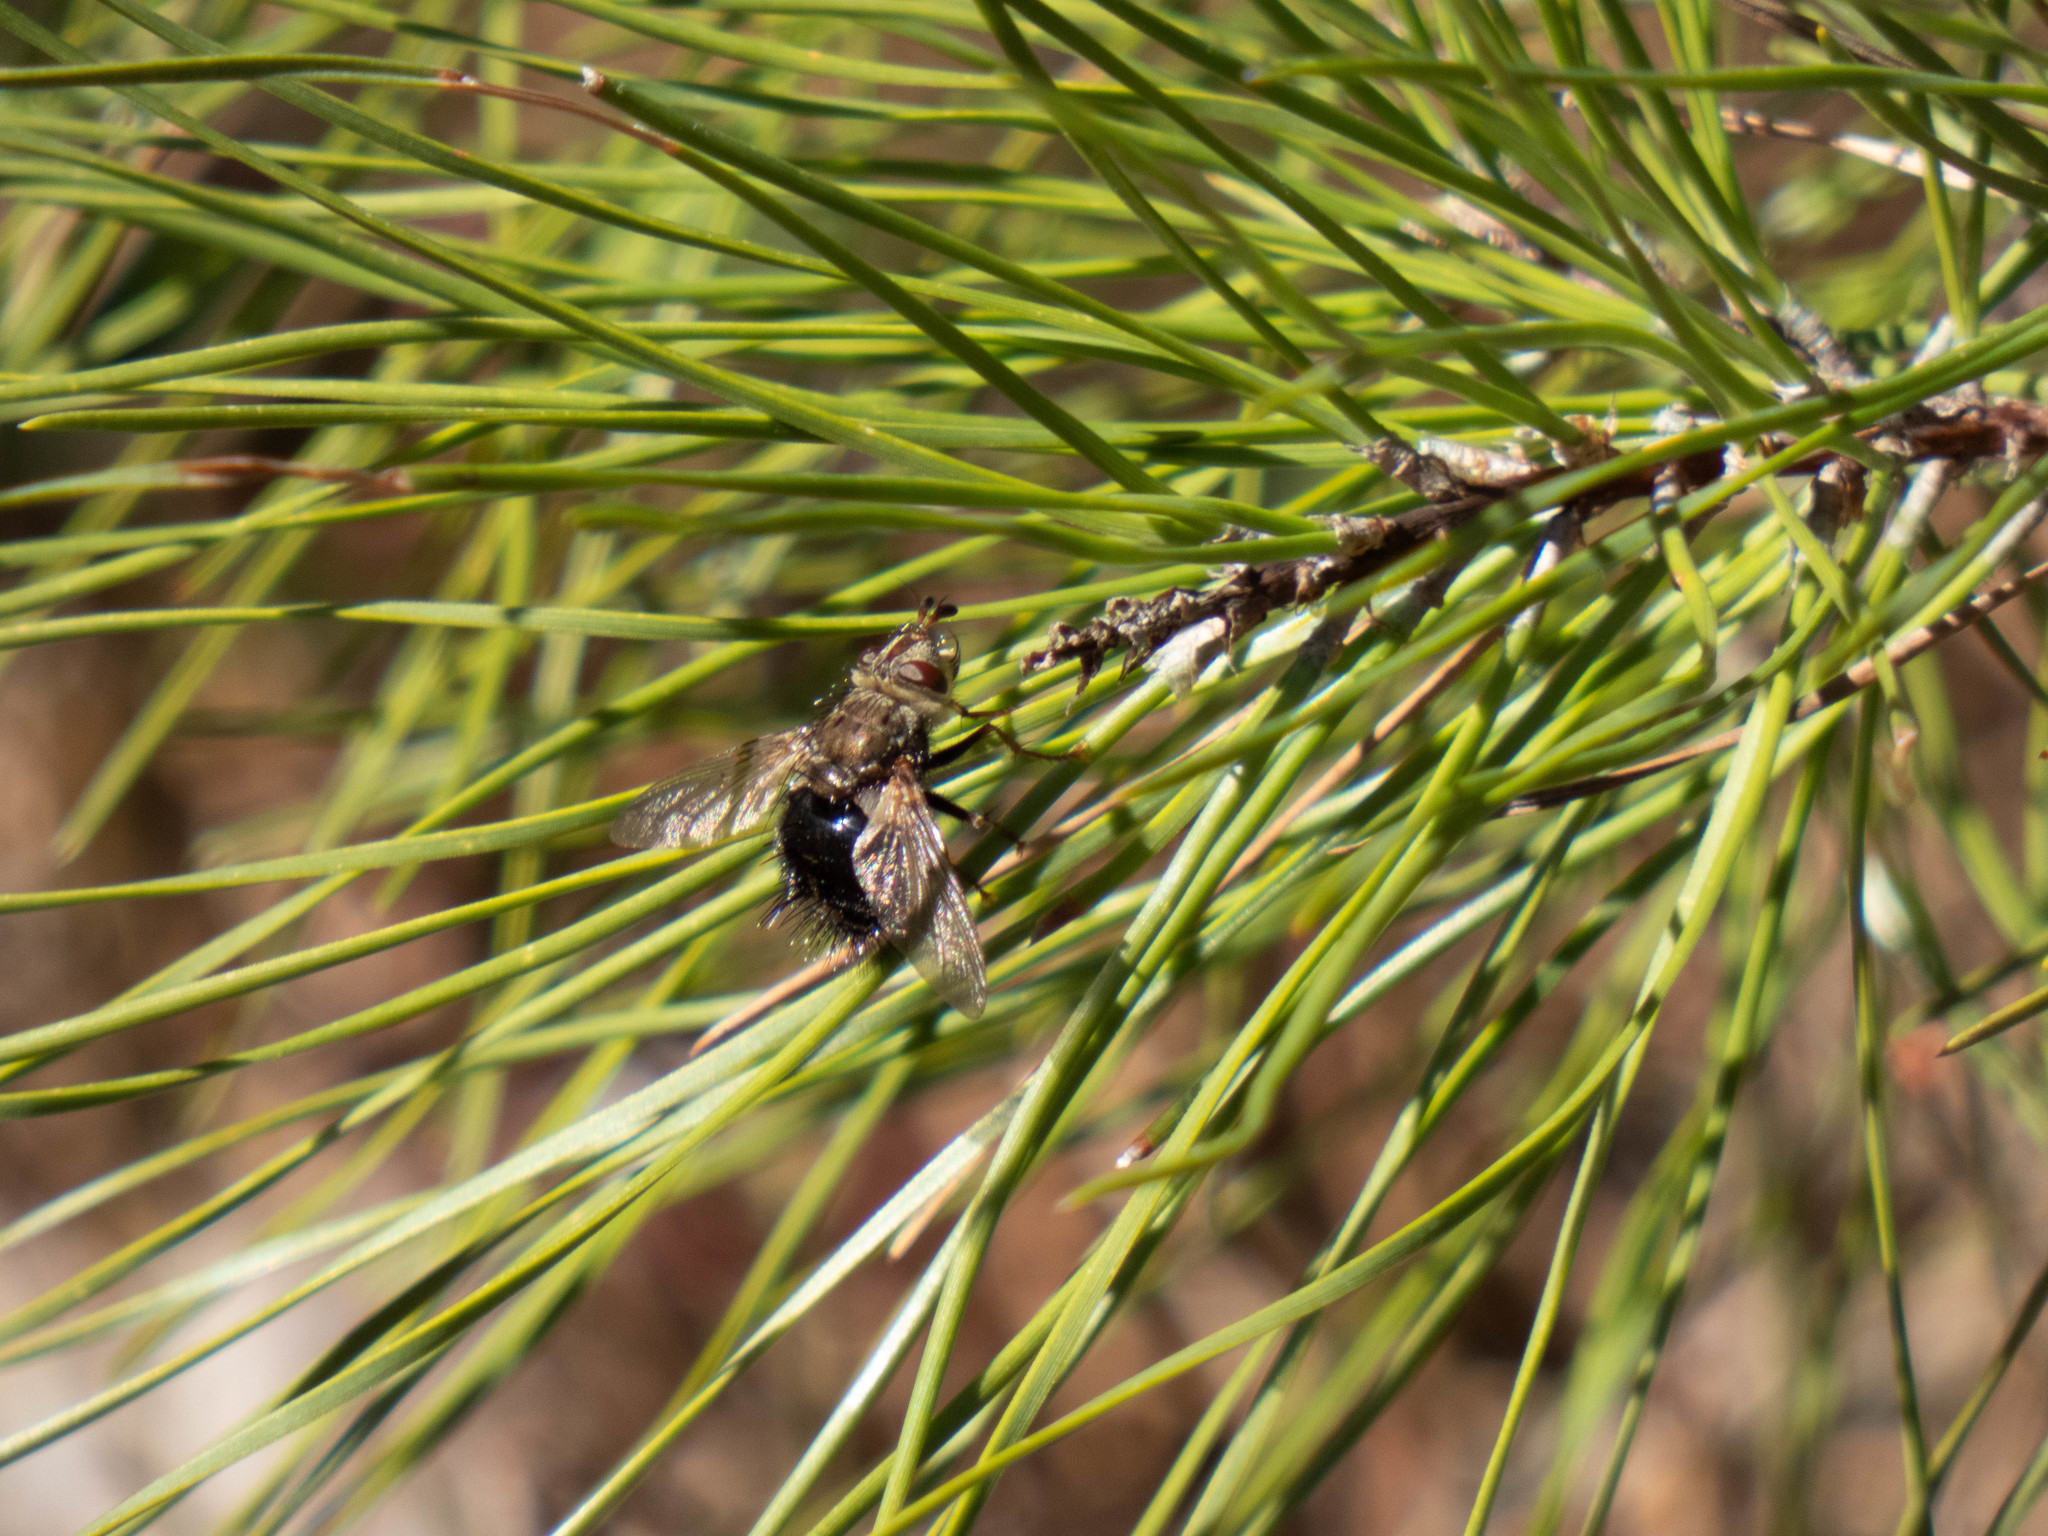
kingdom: Animalia
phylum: Arthropoda
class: Insecta
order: Diptera
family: Tachinidae
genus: Epalpus
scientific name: Epalpus signifer
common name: Early tachinid fly
